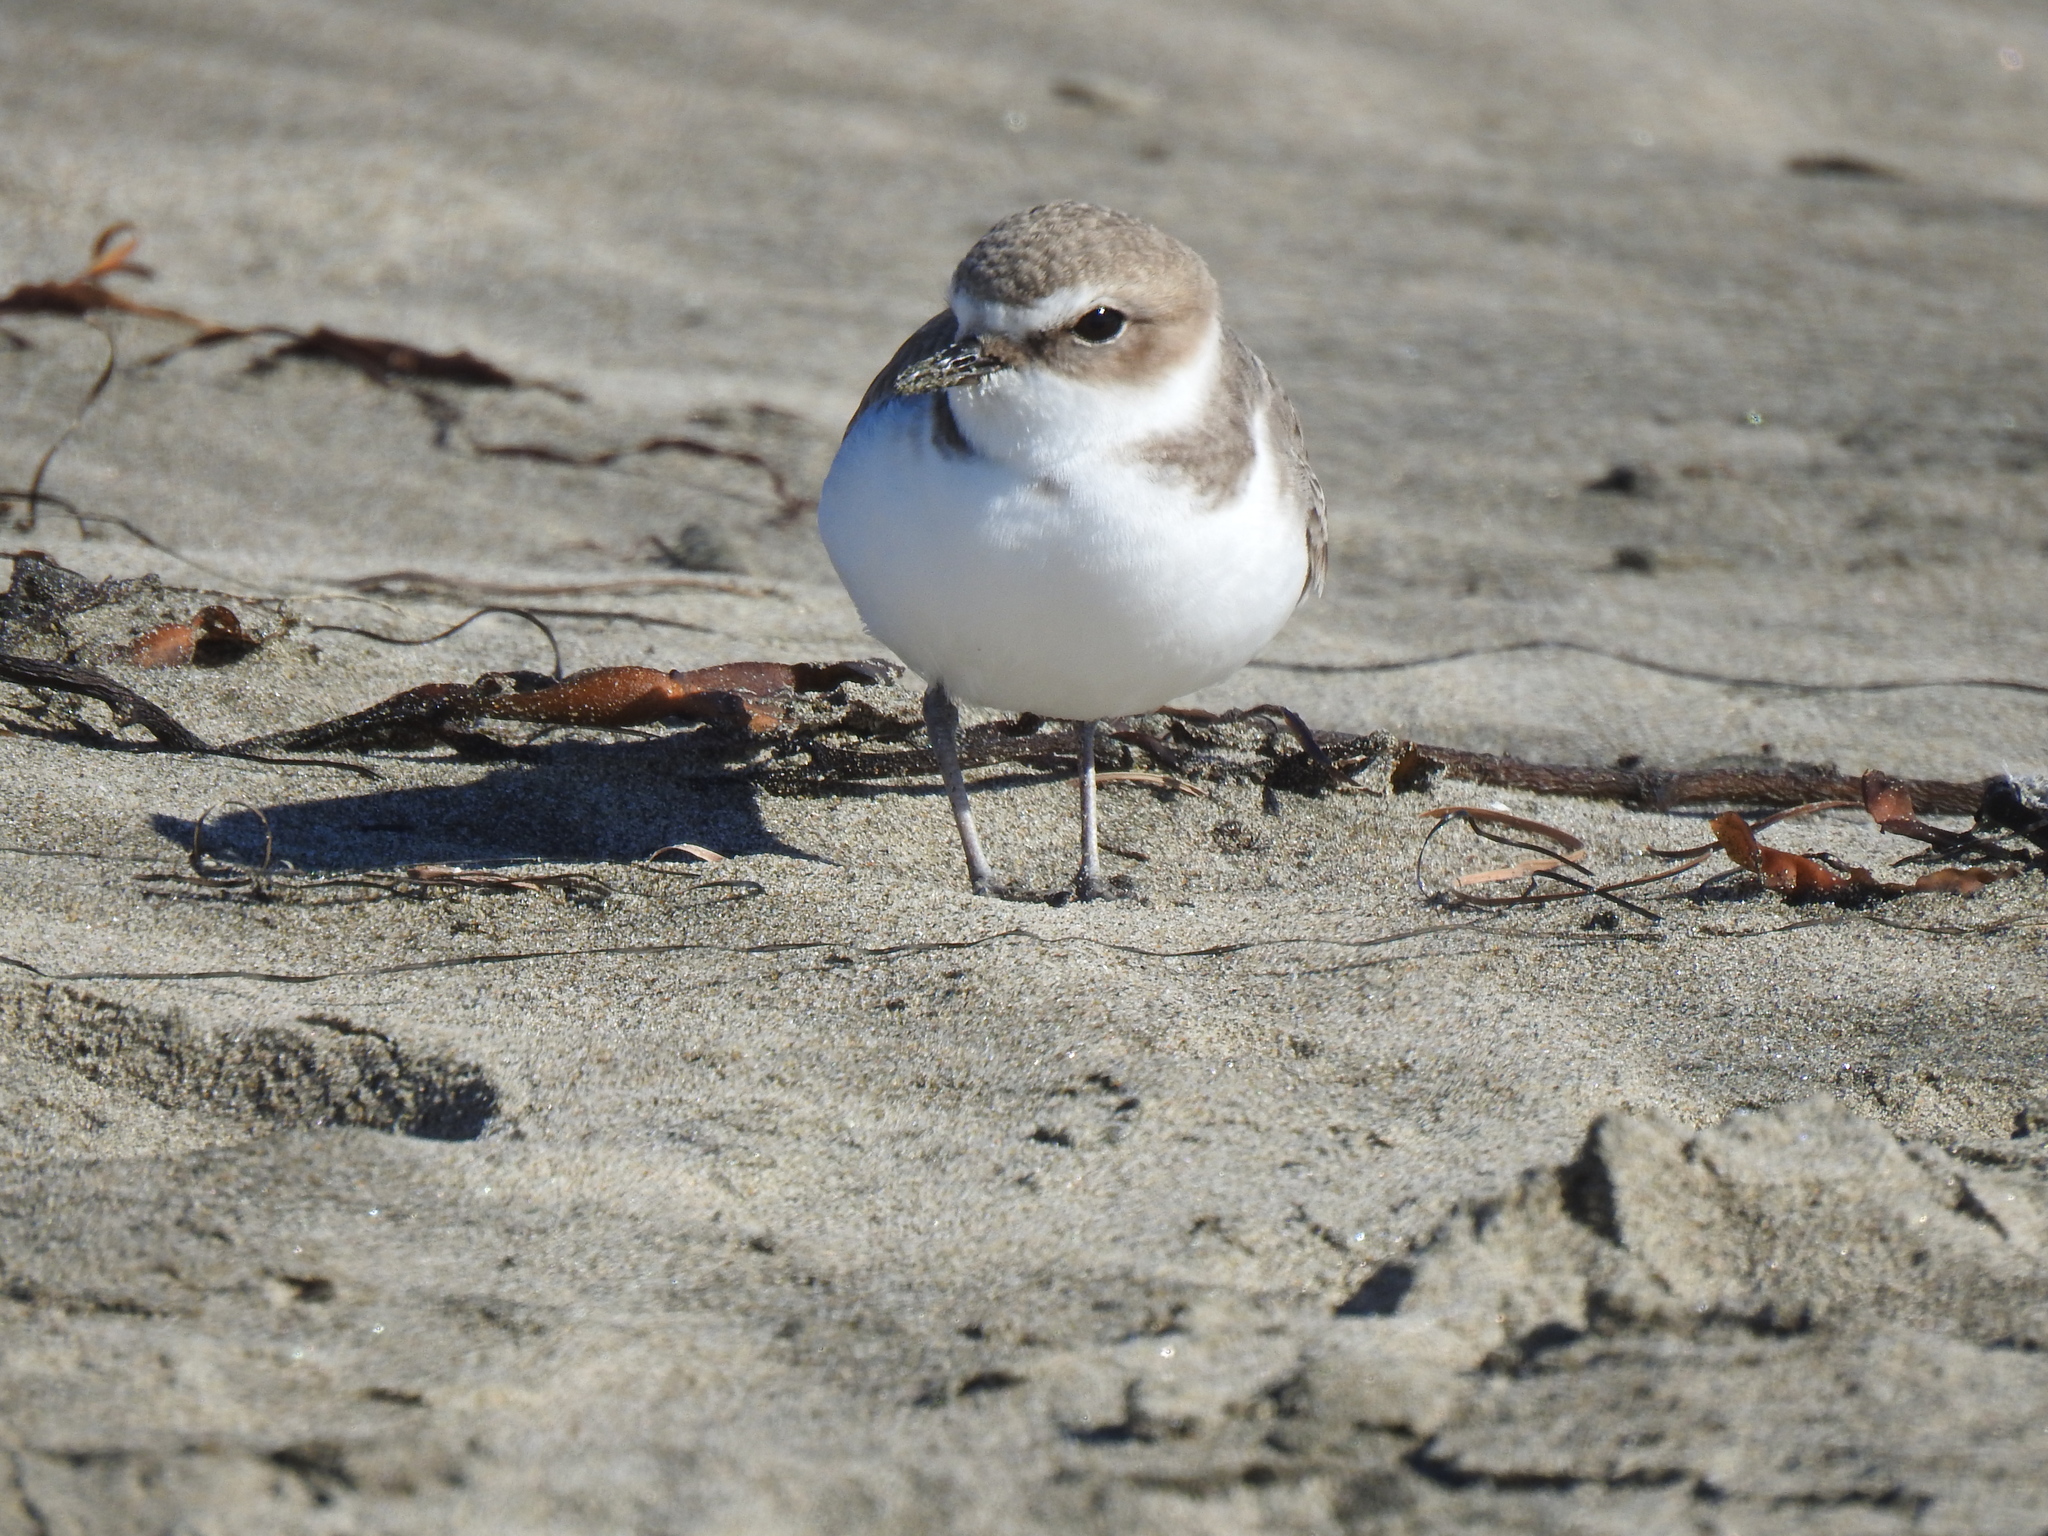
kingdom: Animalia
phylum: Chordata
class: Aves
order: Charadriiformes
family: Charadriidae
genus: Anarhynchus
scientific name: Anarhynchus
